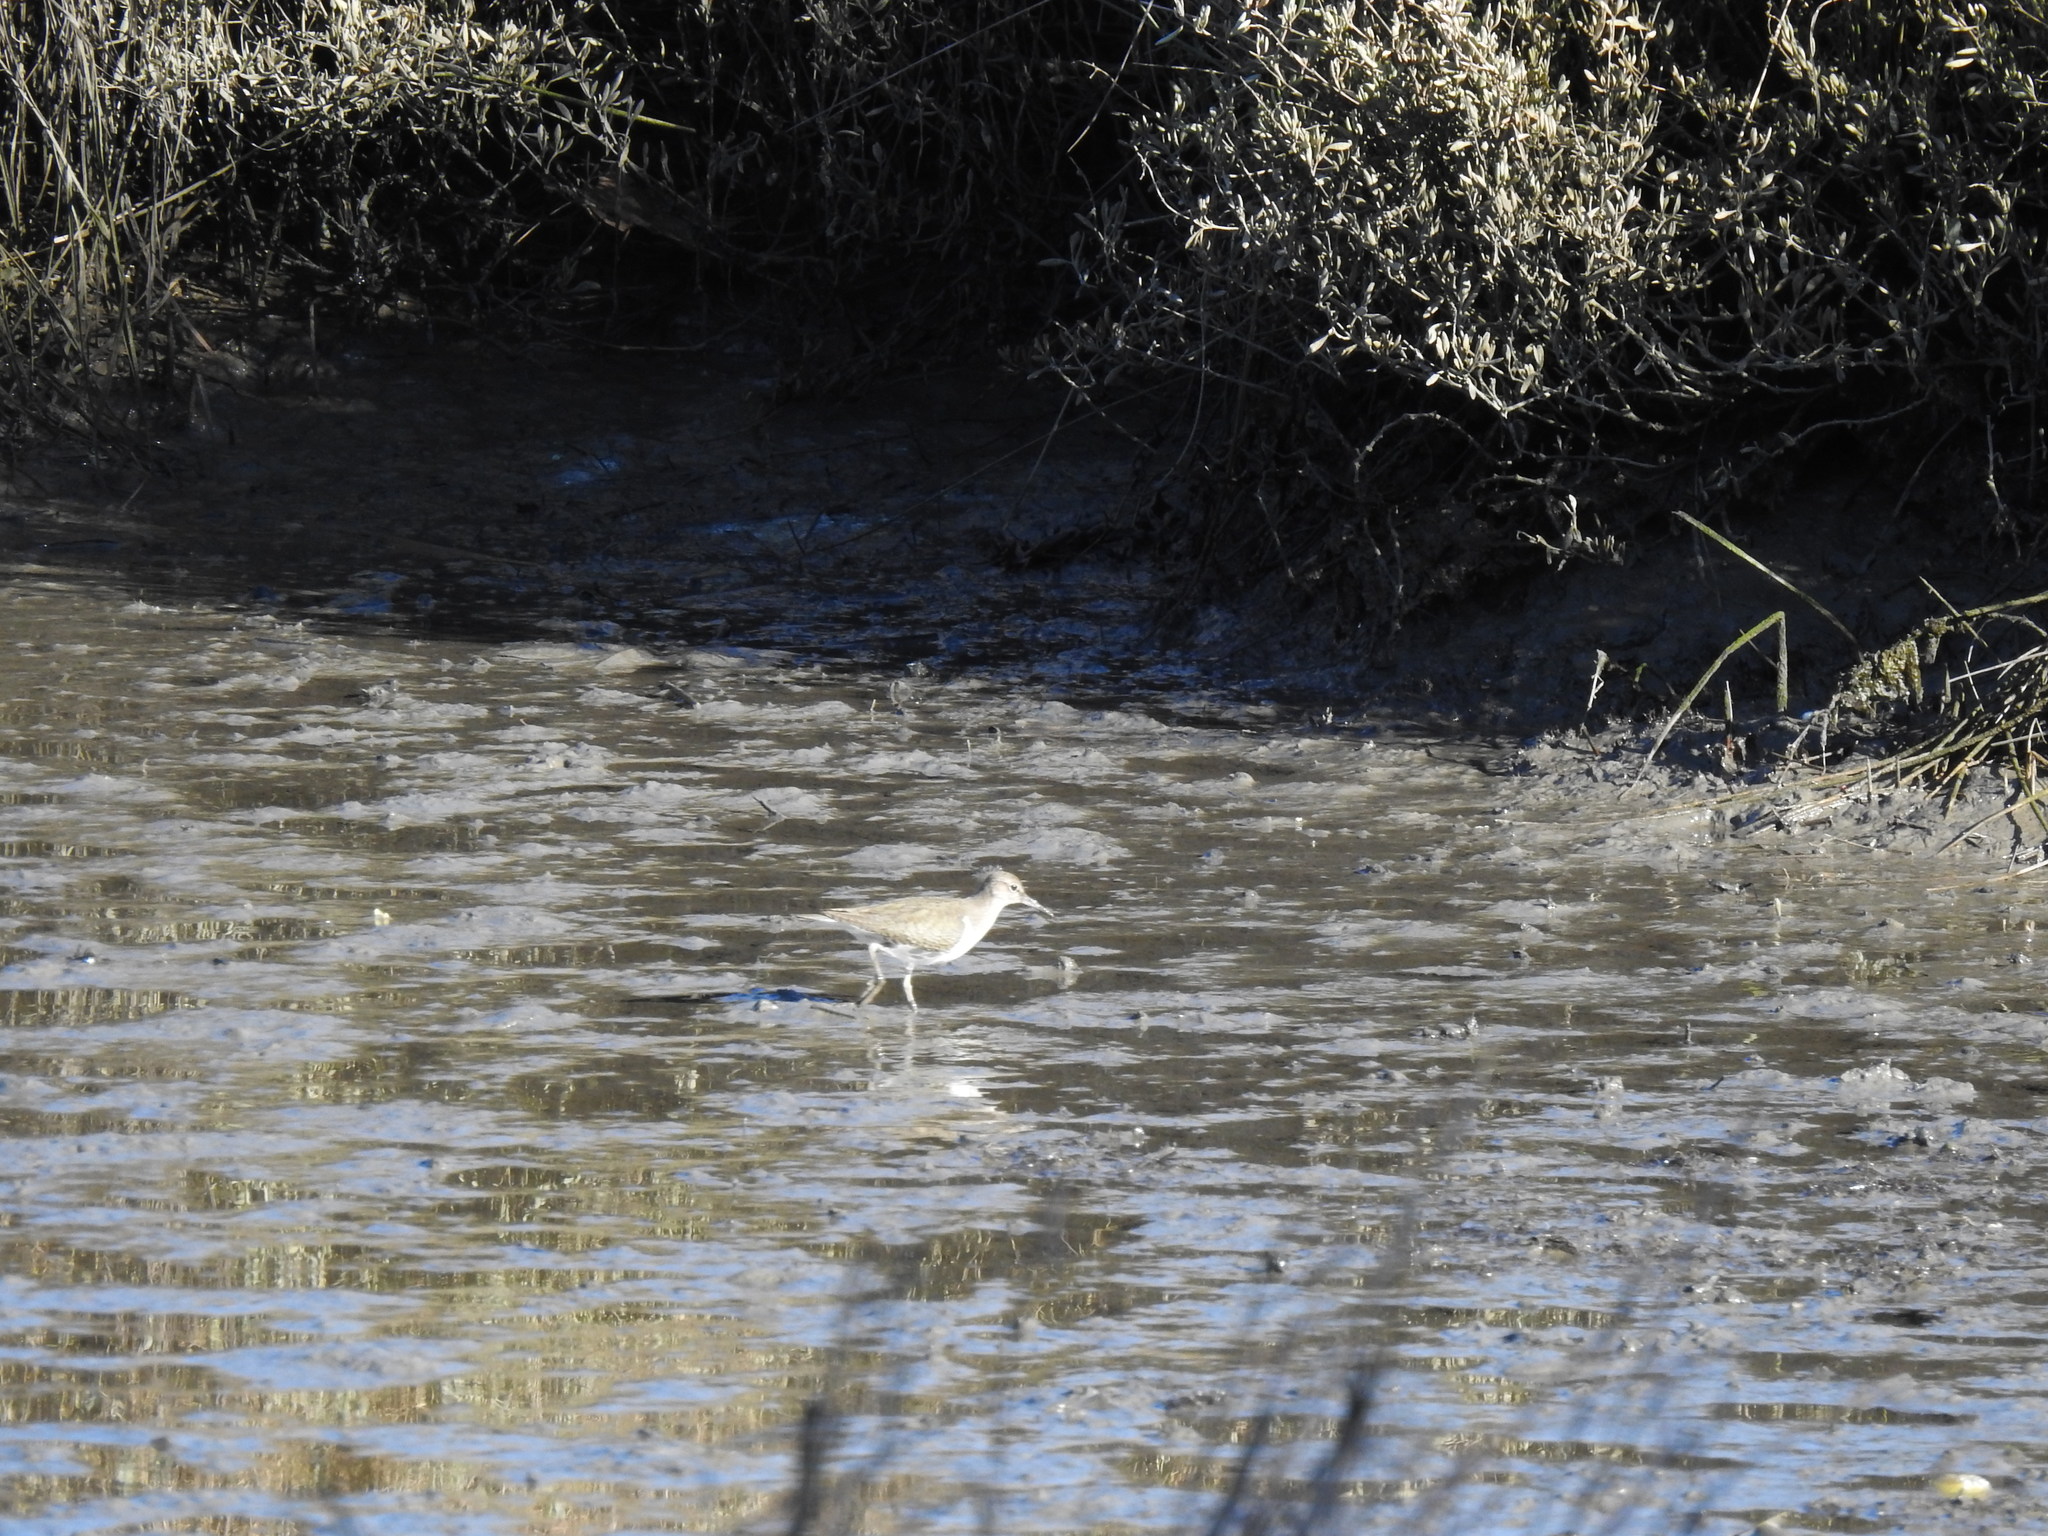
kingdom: Animalia
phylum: Chordata
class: Aves
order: Charadriiformes
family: Scolopacidae
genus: Actitis
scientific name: Actitis hypoleucos
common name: Common sandpiper
